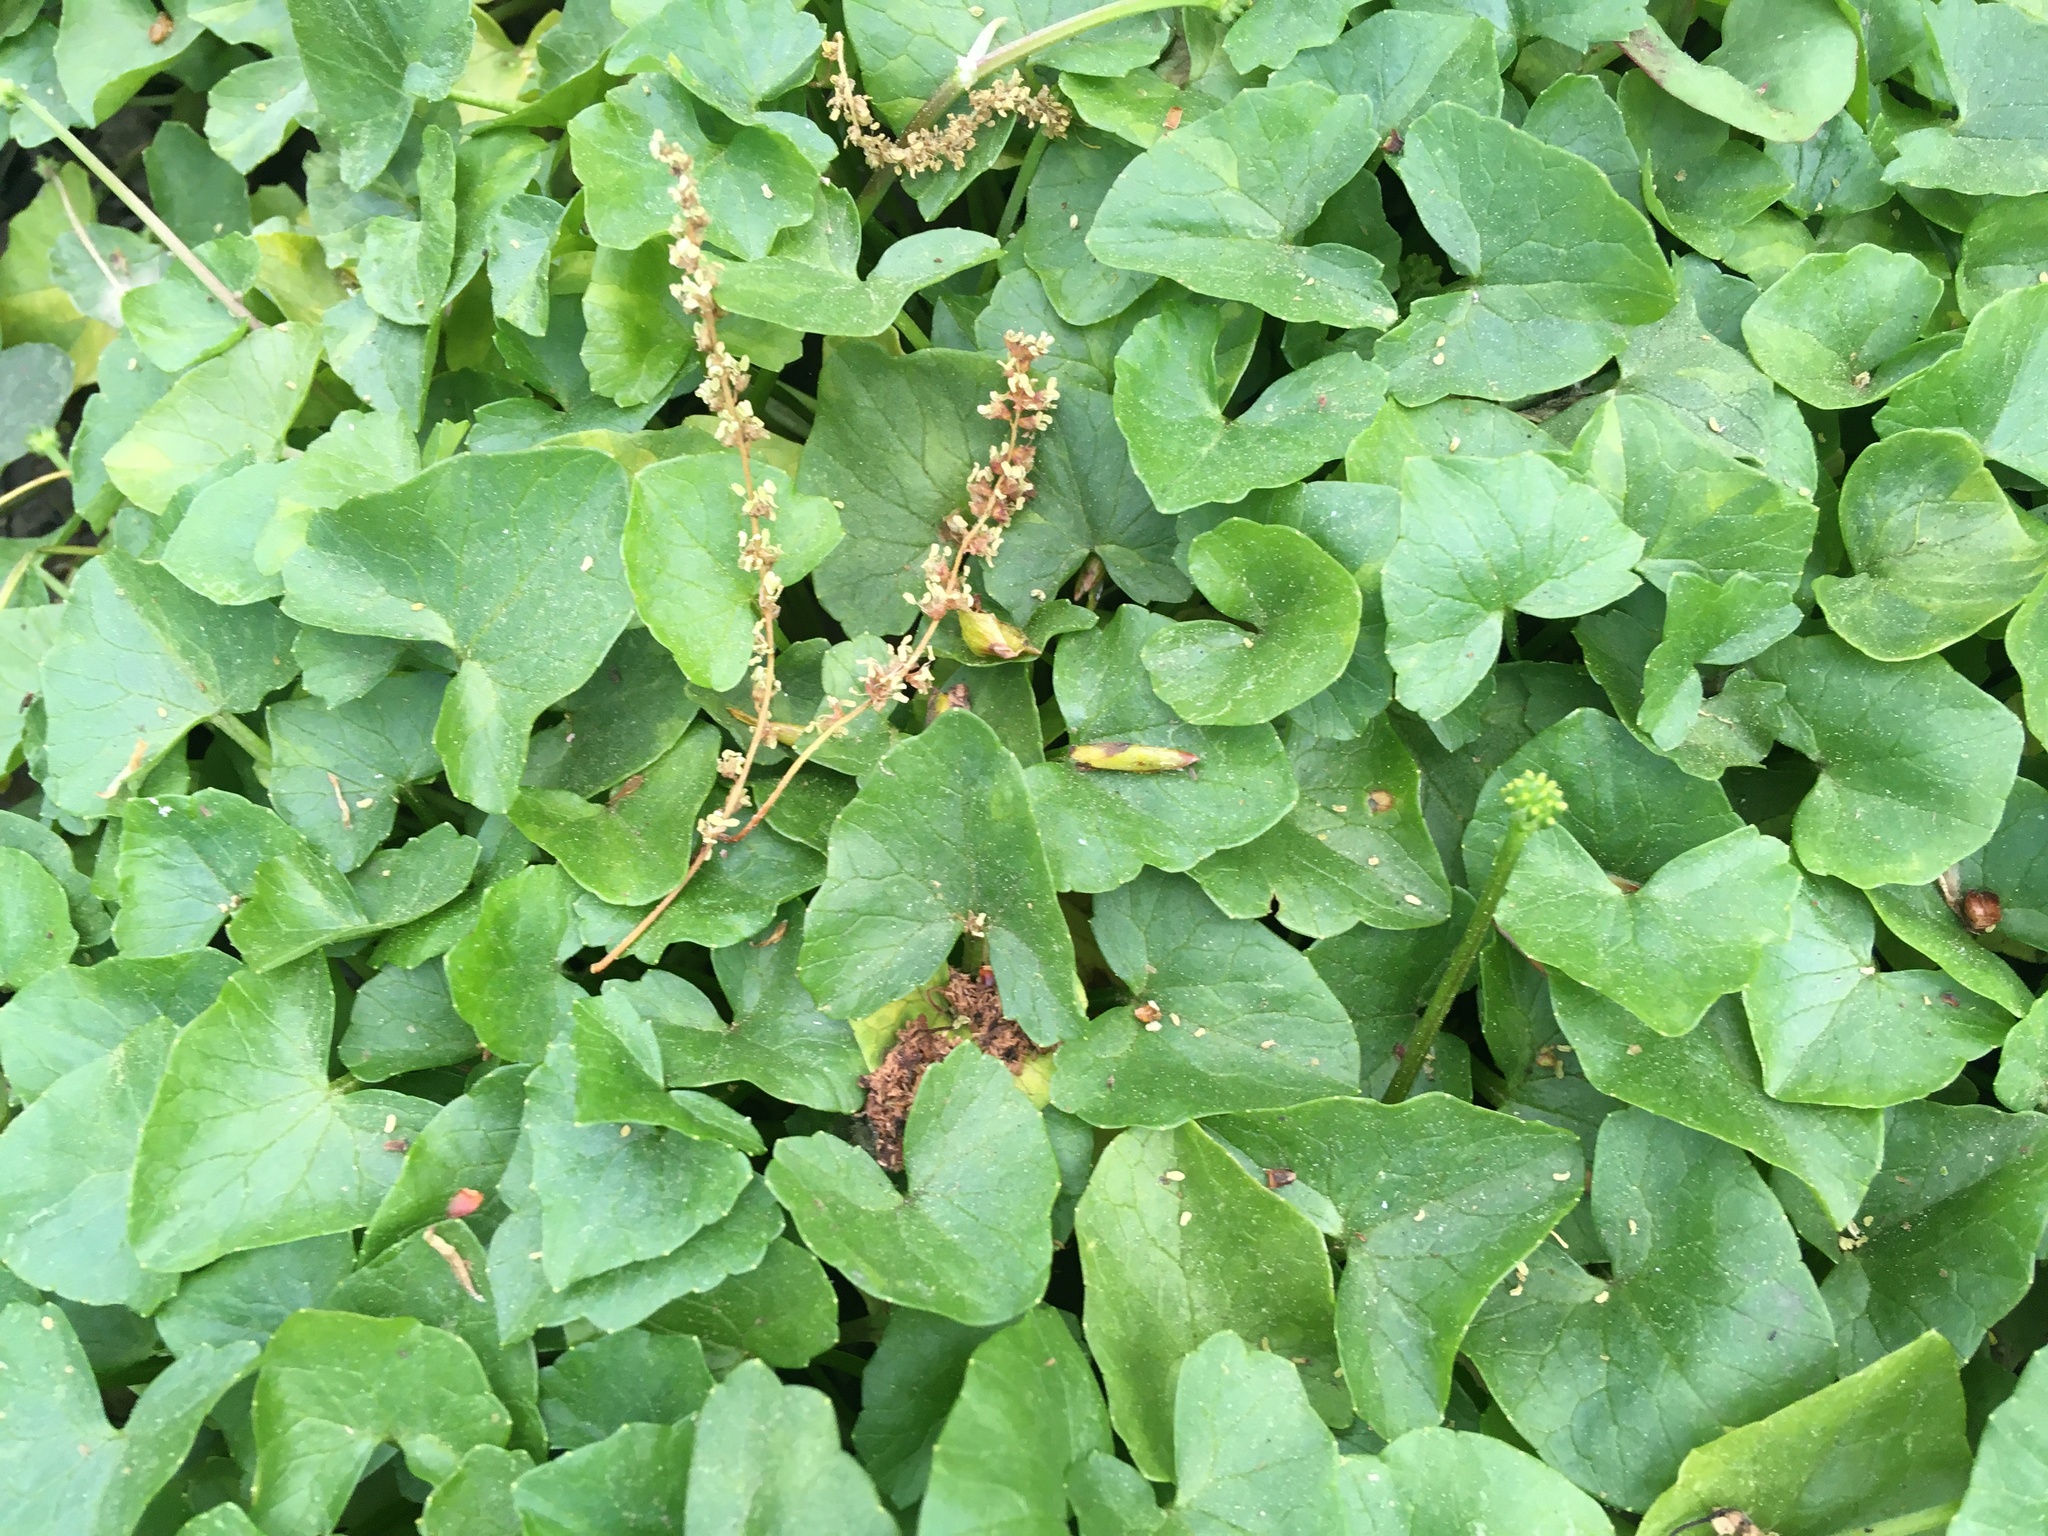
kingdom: Plantae
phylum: Tracheophyta
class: Magnoliopsida
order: Ranunculales
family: Ranunculaceae
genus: Ficaria
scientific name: Ficaria verna
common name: Lesser celandine
